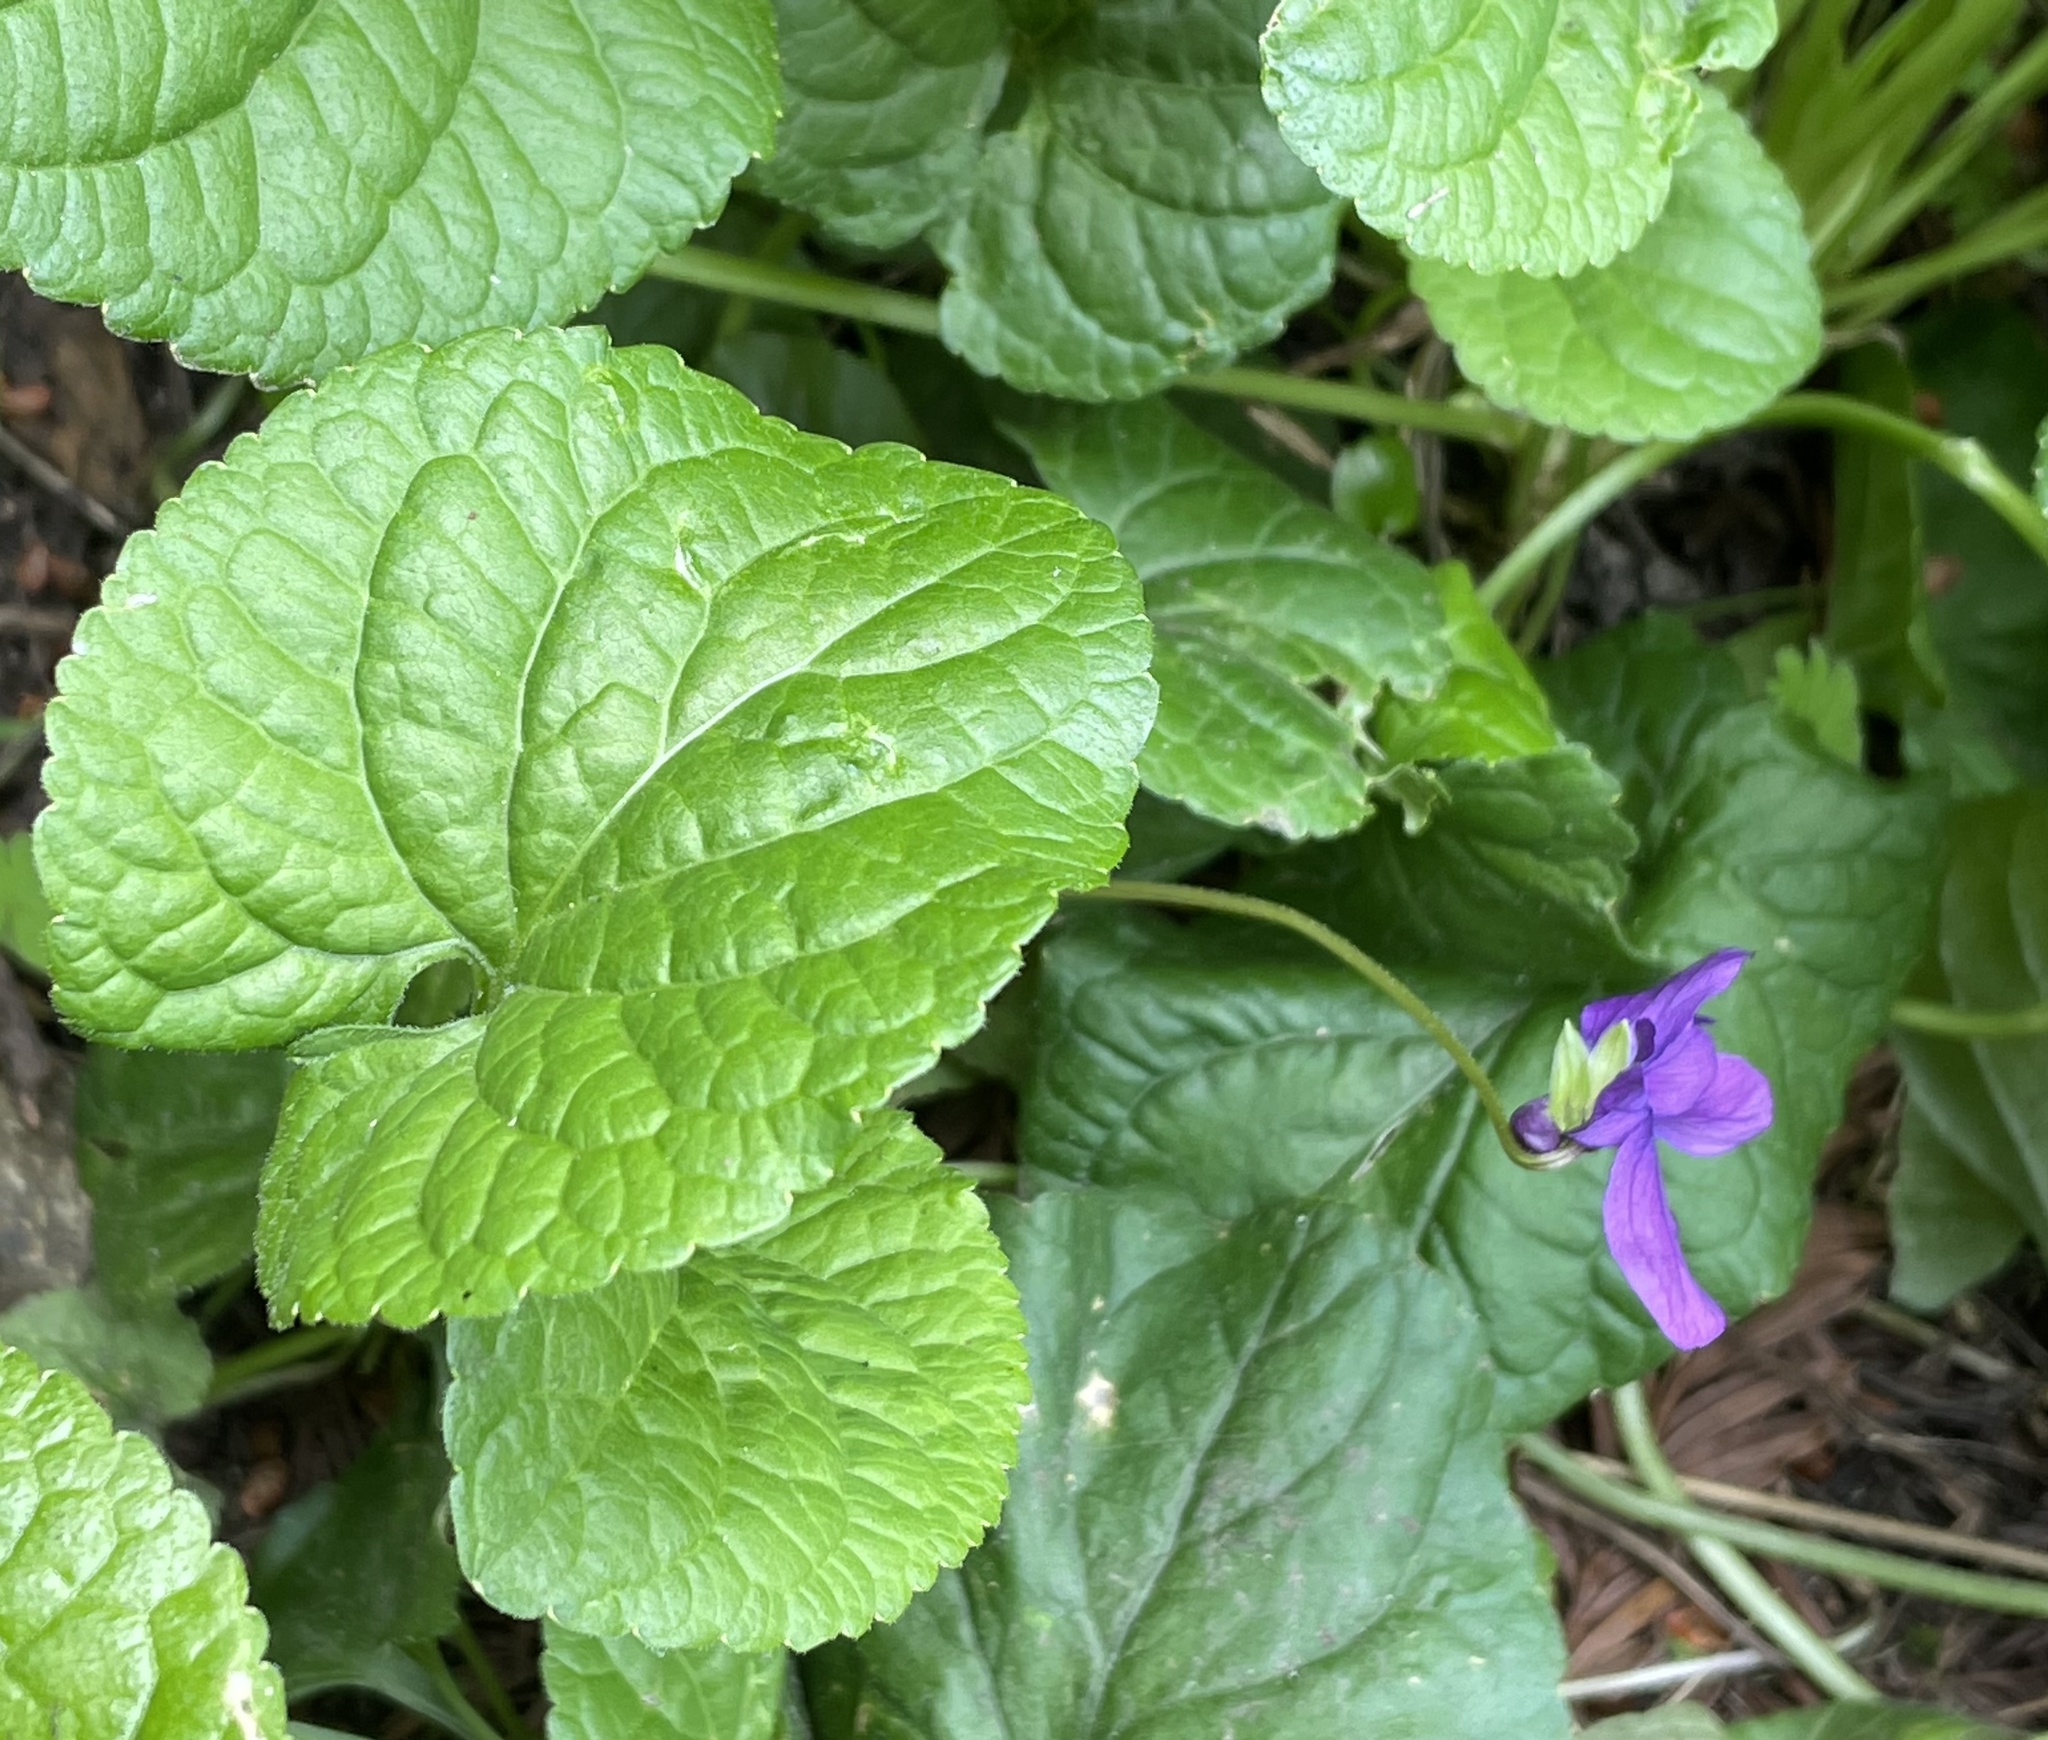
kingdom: Plantae
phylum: Tracheophyta
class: Magnoliopsida
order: Malpighiales
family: Violaceae
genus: Viola
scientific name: Viola odorata
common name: Sweet violet
